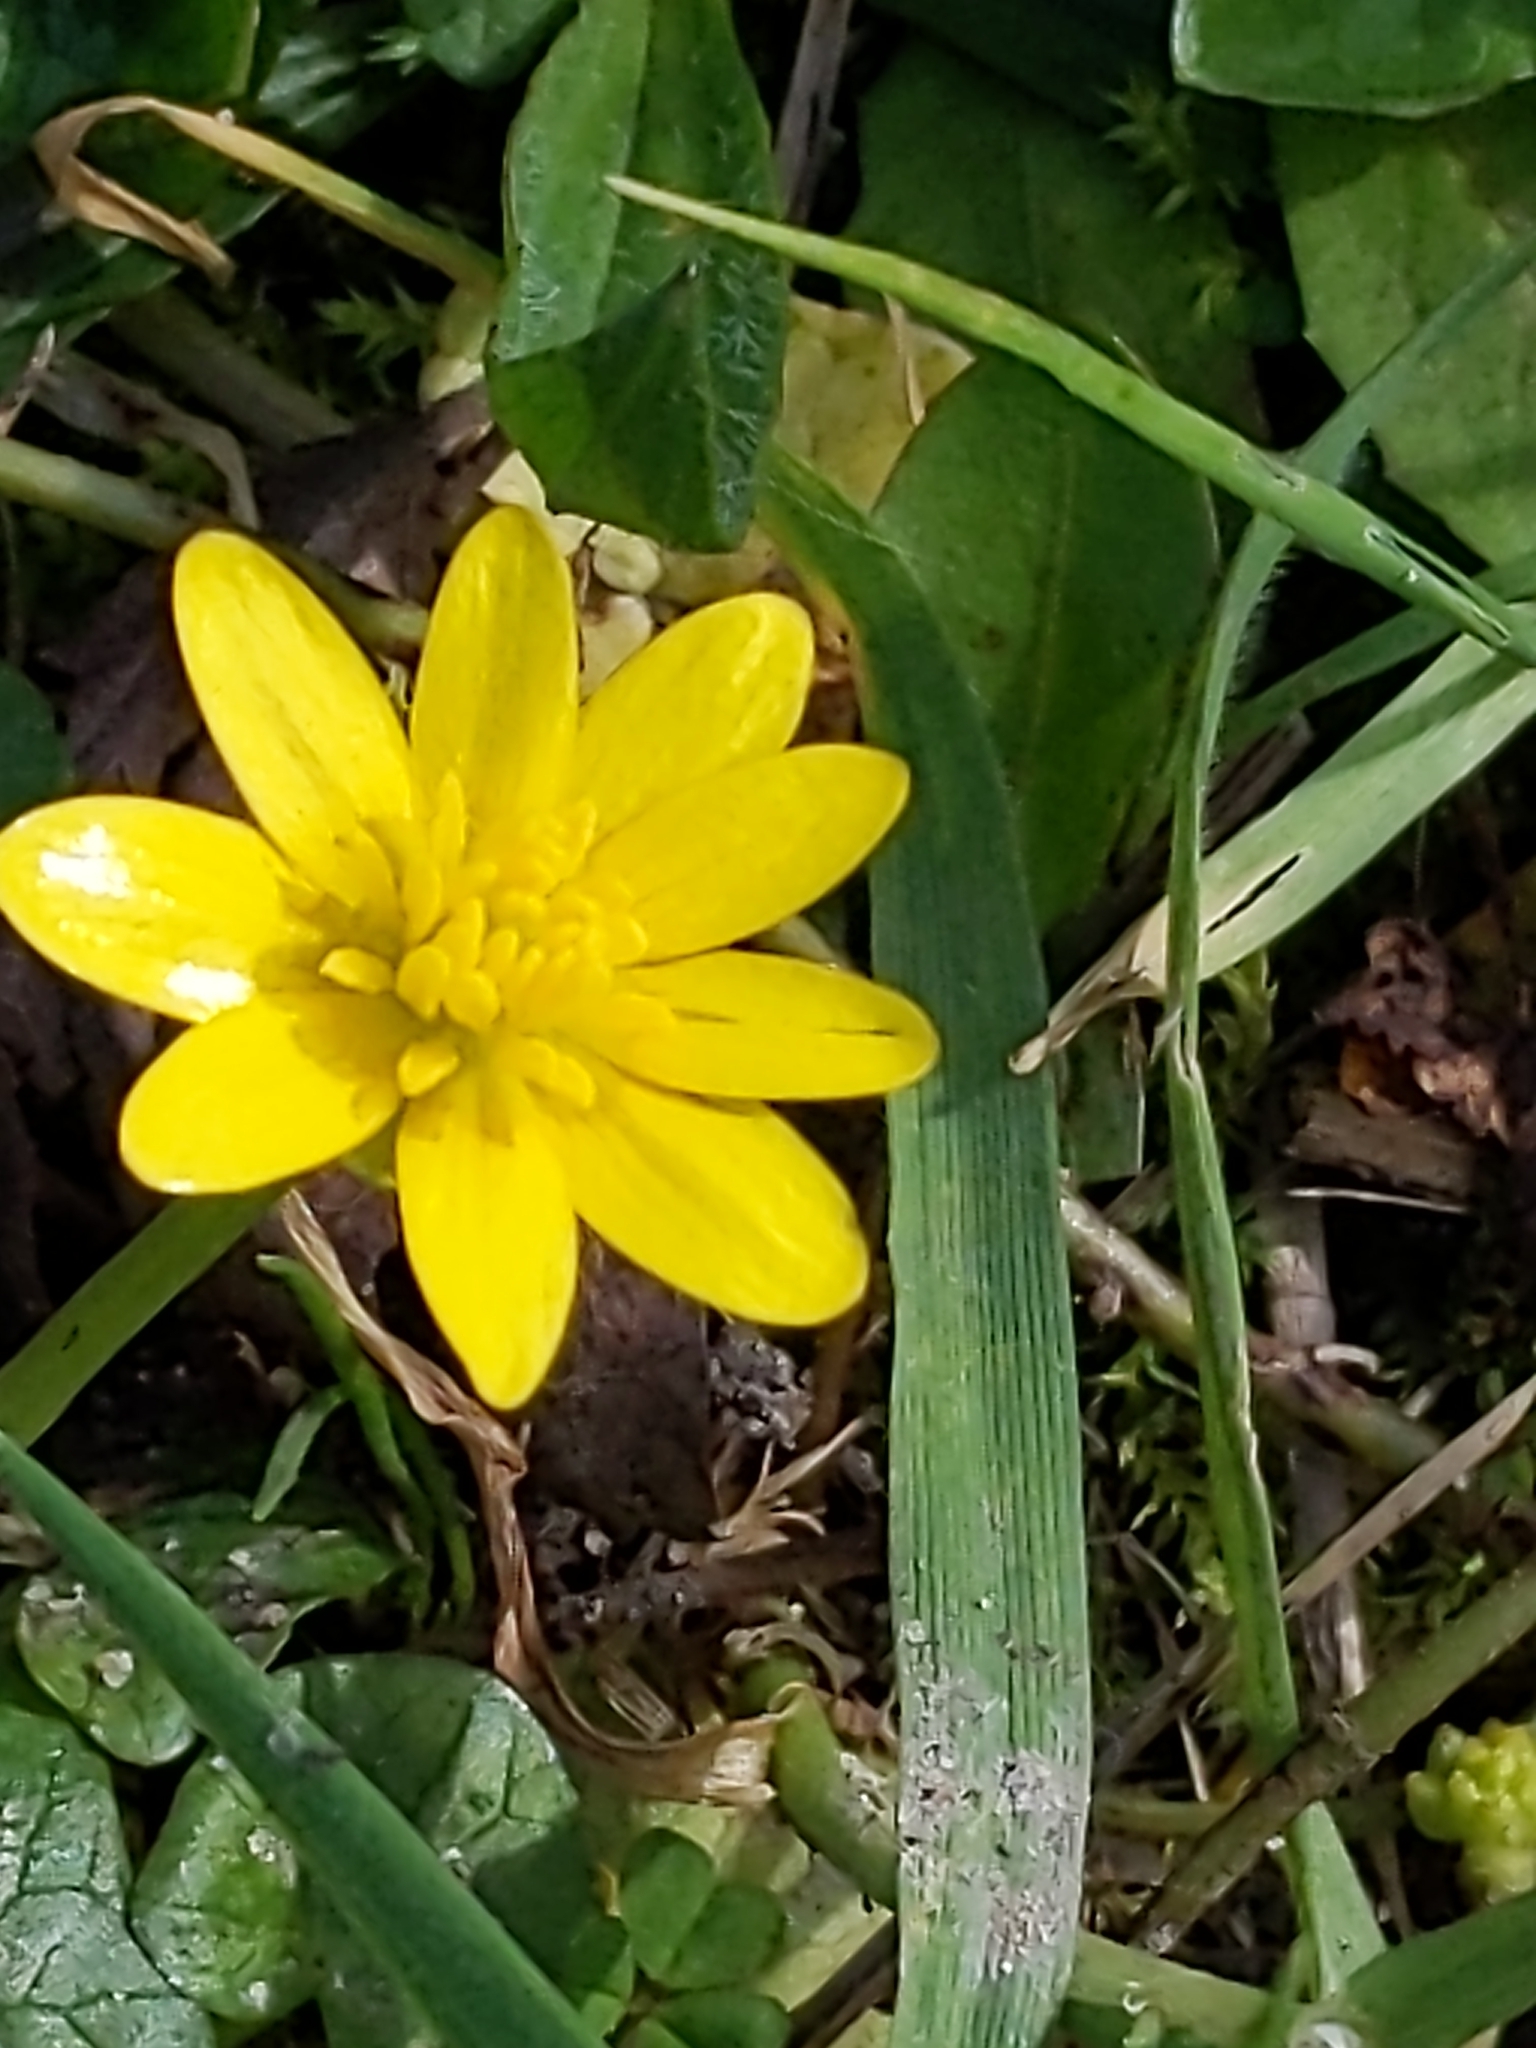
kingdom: Plantae
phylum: Tracheophyta
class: Magnoliopsida
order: Ranunculales
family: Ranunculaceae
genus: Ficaria
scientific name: Ficaria verna
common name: Lesser celandine
